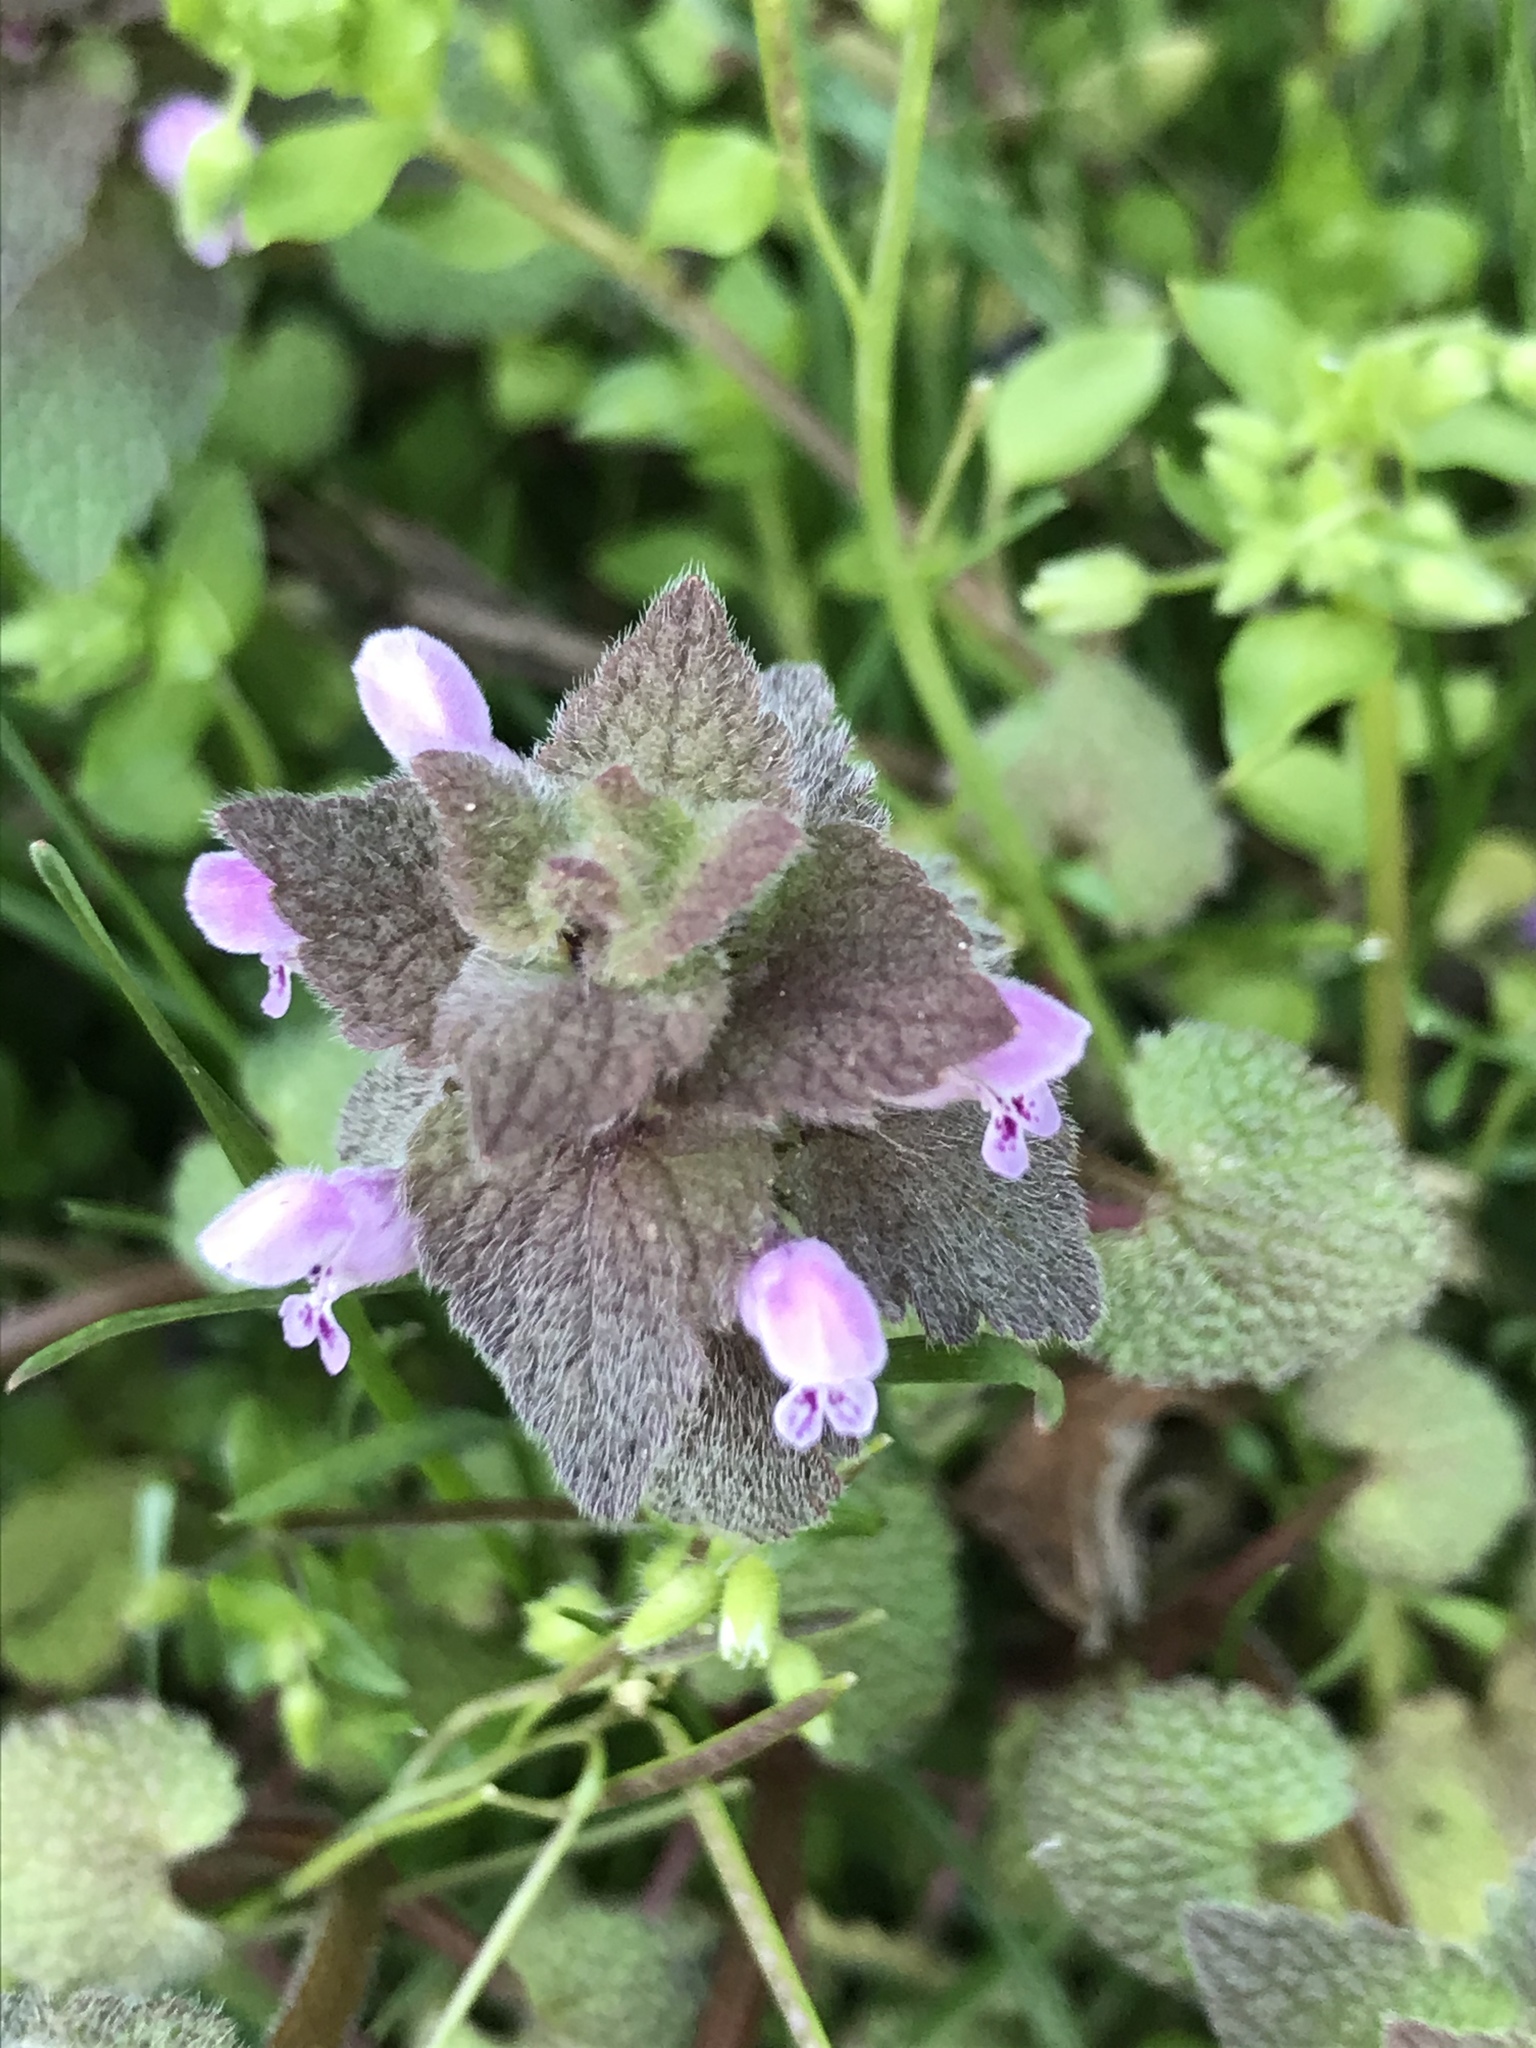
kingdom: Plantae
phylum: Tracheophyta
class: Magnoliopsida
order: Lamiales
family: Lamiaceae
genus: Lamium
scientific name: Lamium purpureum
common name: Red dead-nettle
